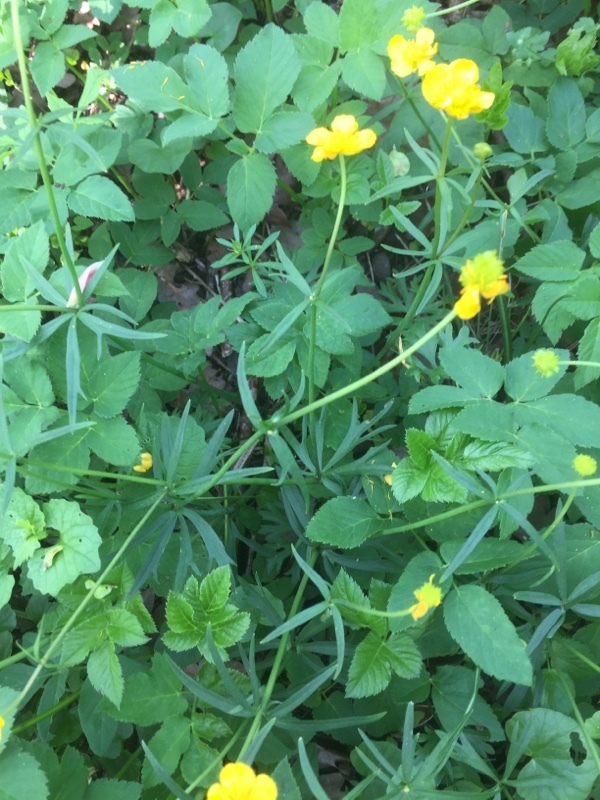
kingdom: Plantae
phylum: Tracheophyta
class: Magnoliopsida
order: Ranunculales
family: Ranunculaceae
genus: Ranunculus
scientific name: Ranunculus auricomus
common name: Goldilocks buttercup
